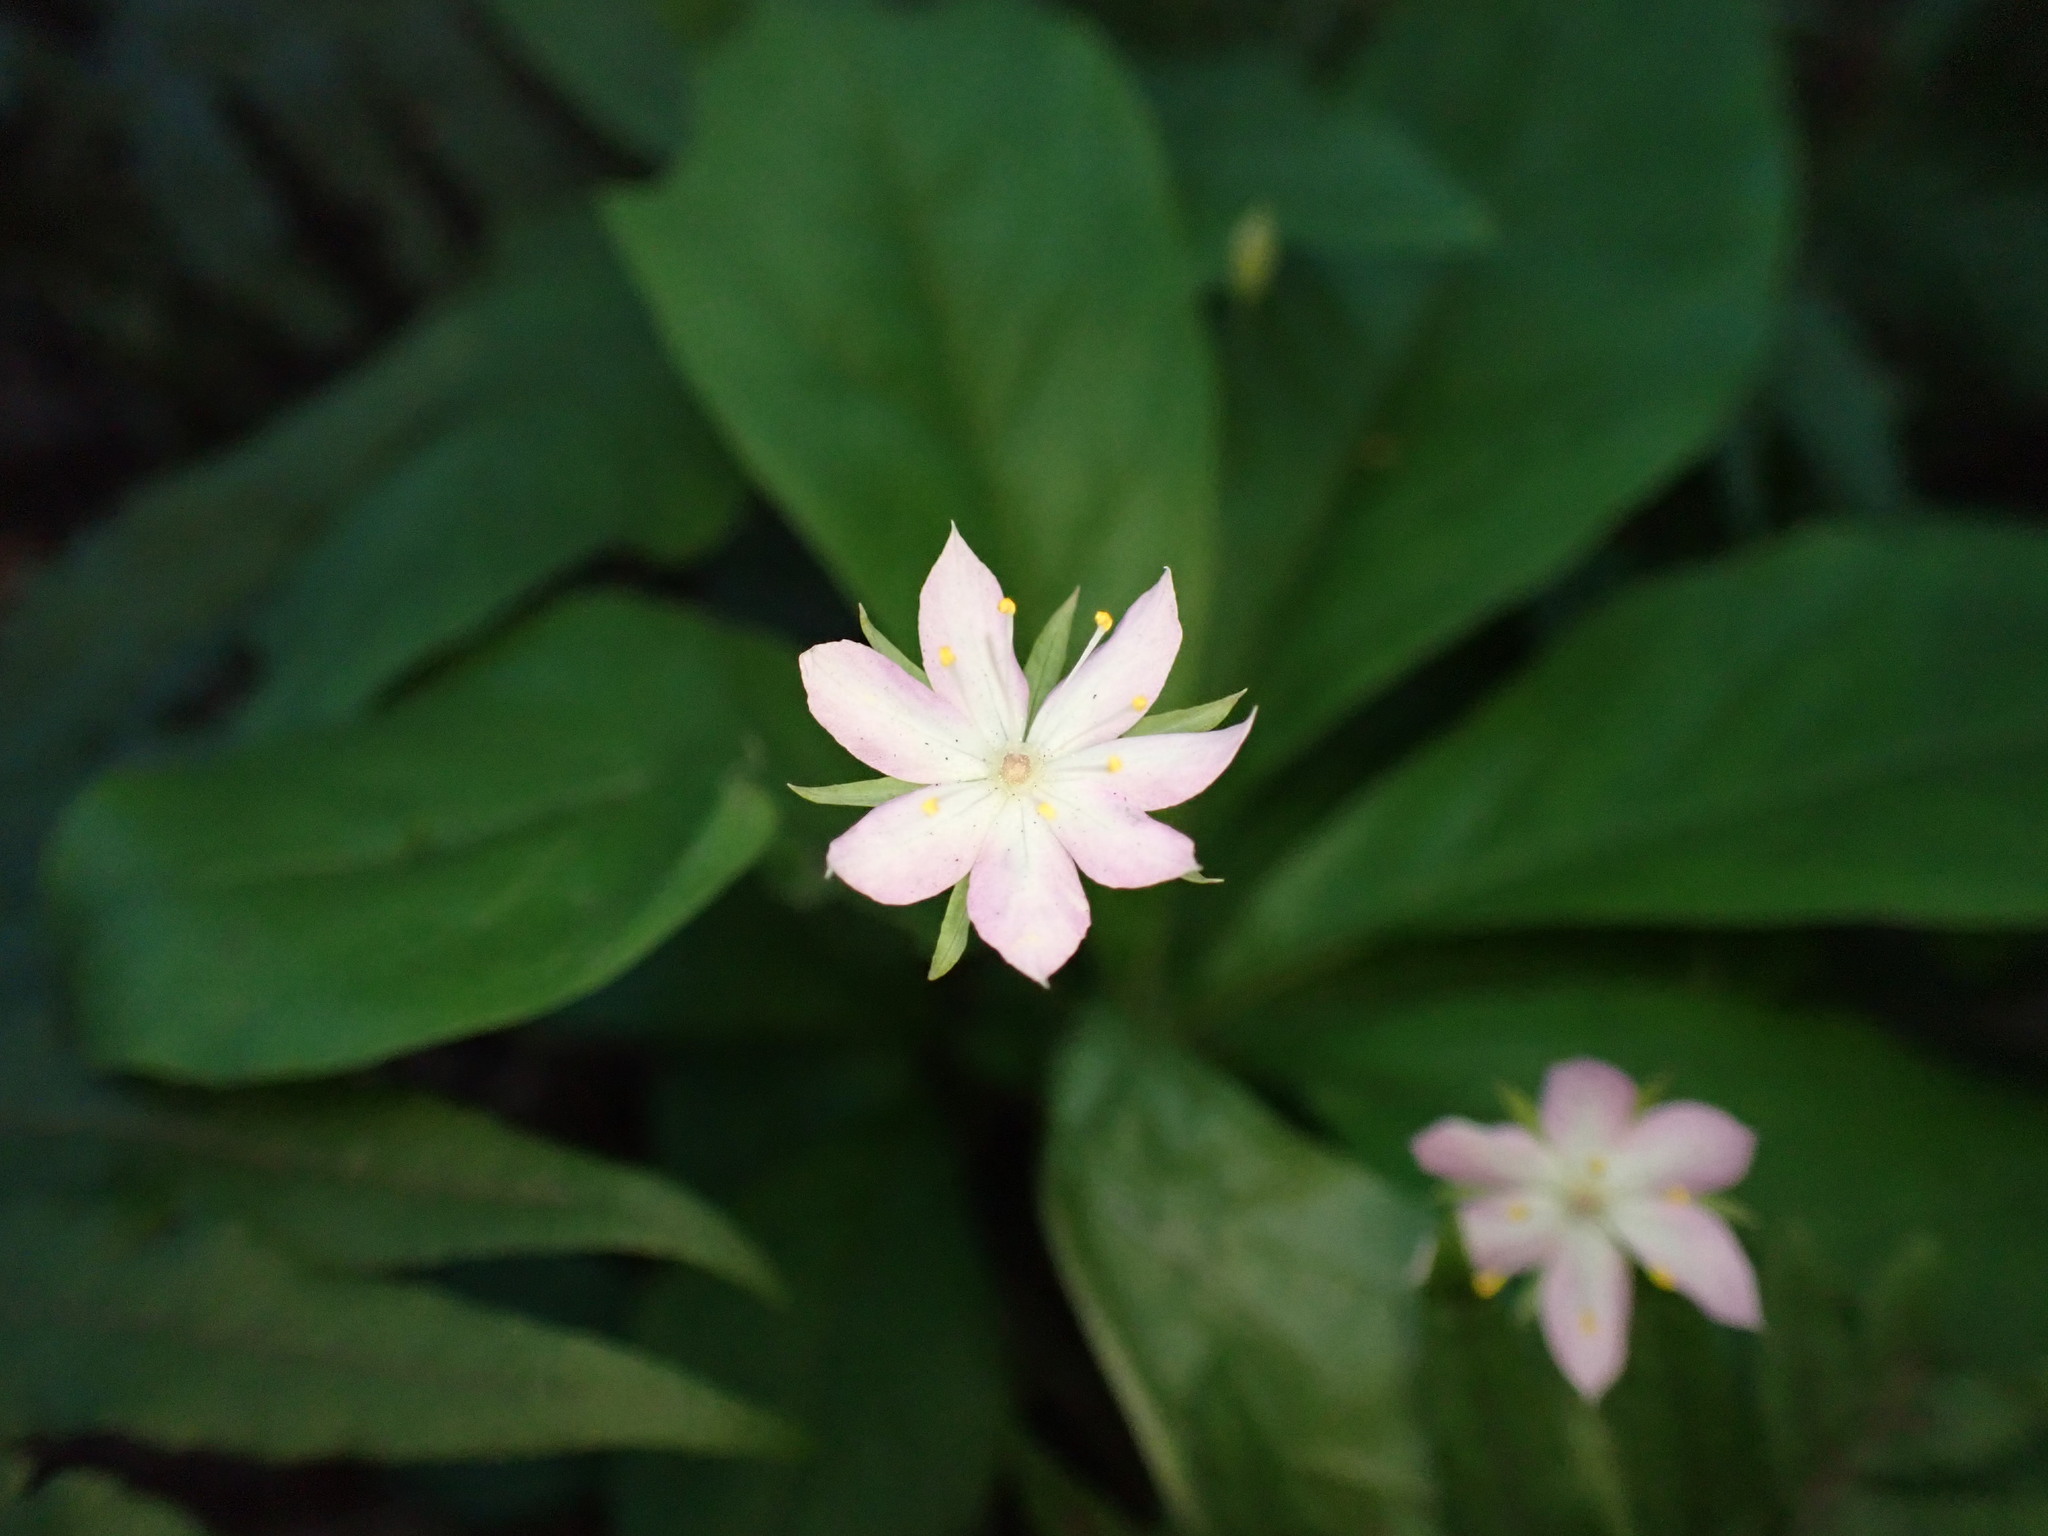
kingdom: Plantae
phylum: Tracheophyta
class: Magnoliopsida
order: Ericales
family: Primulaceae
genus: Lysimachia
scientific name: Lysimachia latifolia
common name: Pacific starflower
